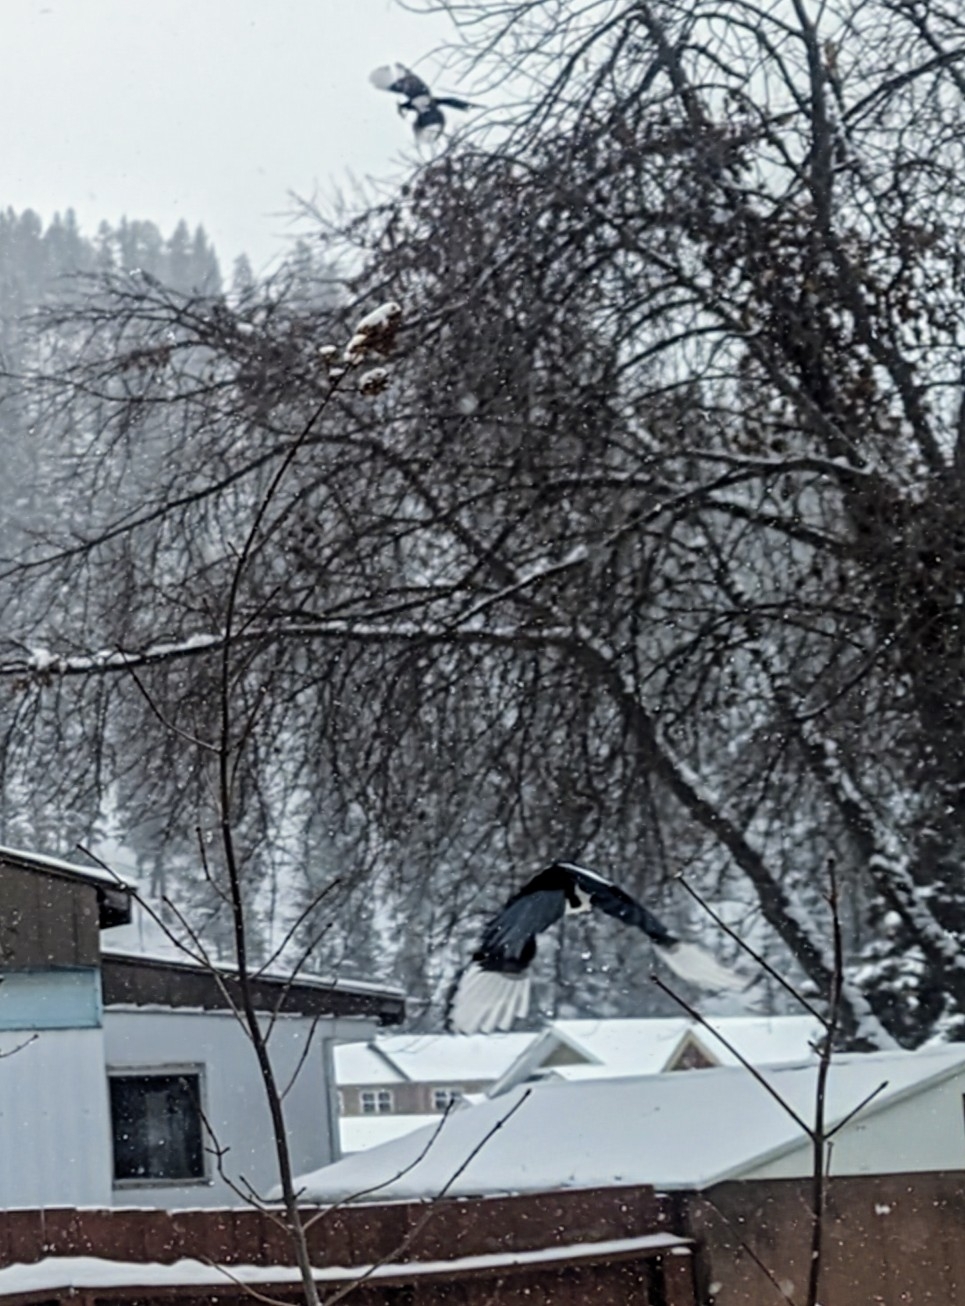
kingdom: Animalia
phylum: Chordata
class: Aves
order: Passeriformes
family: Corvidae
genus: Pica
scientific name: Pica hudsonia
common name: Black-billed magpie
